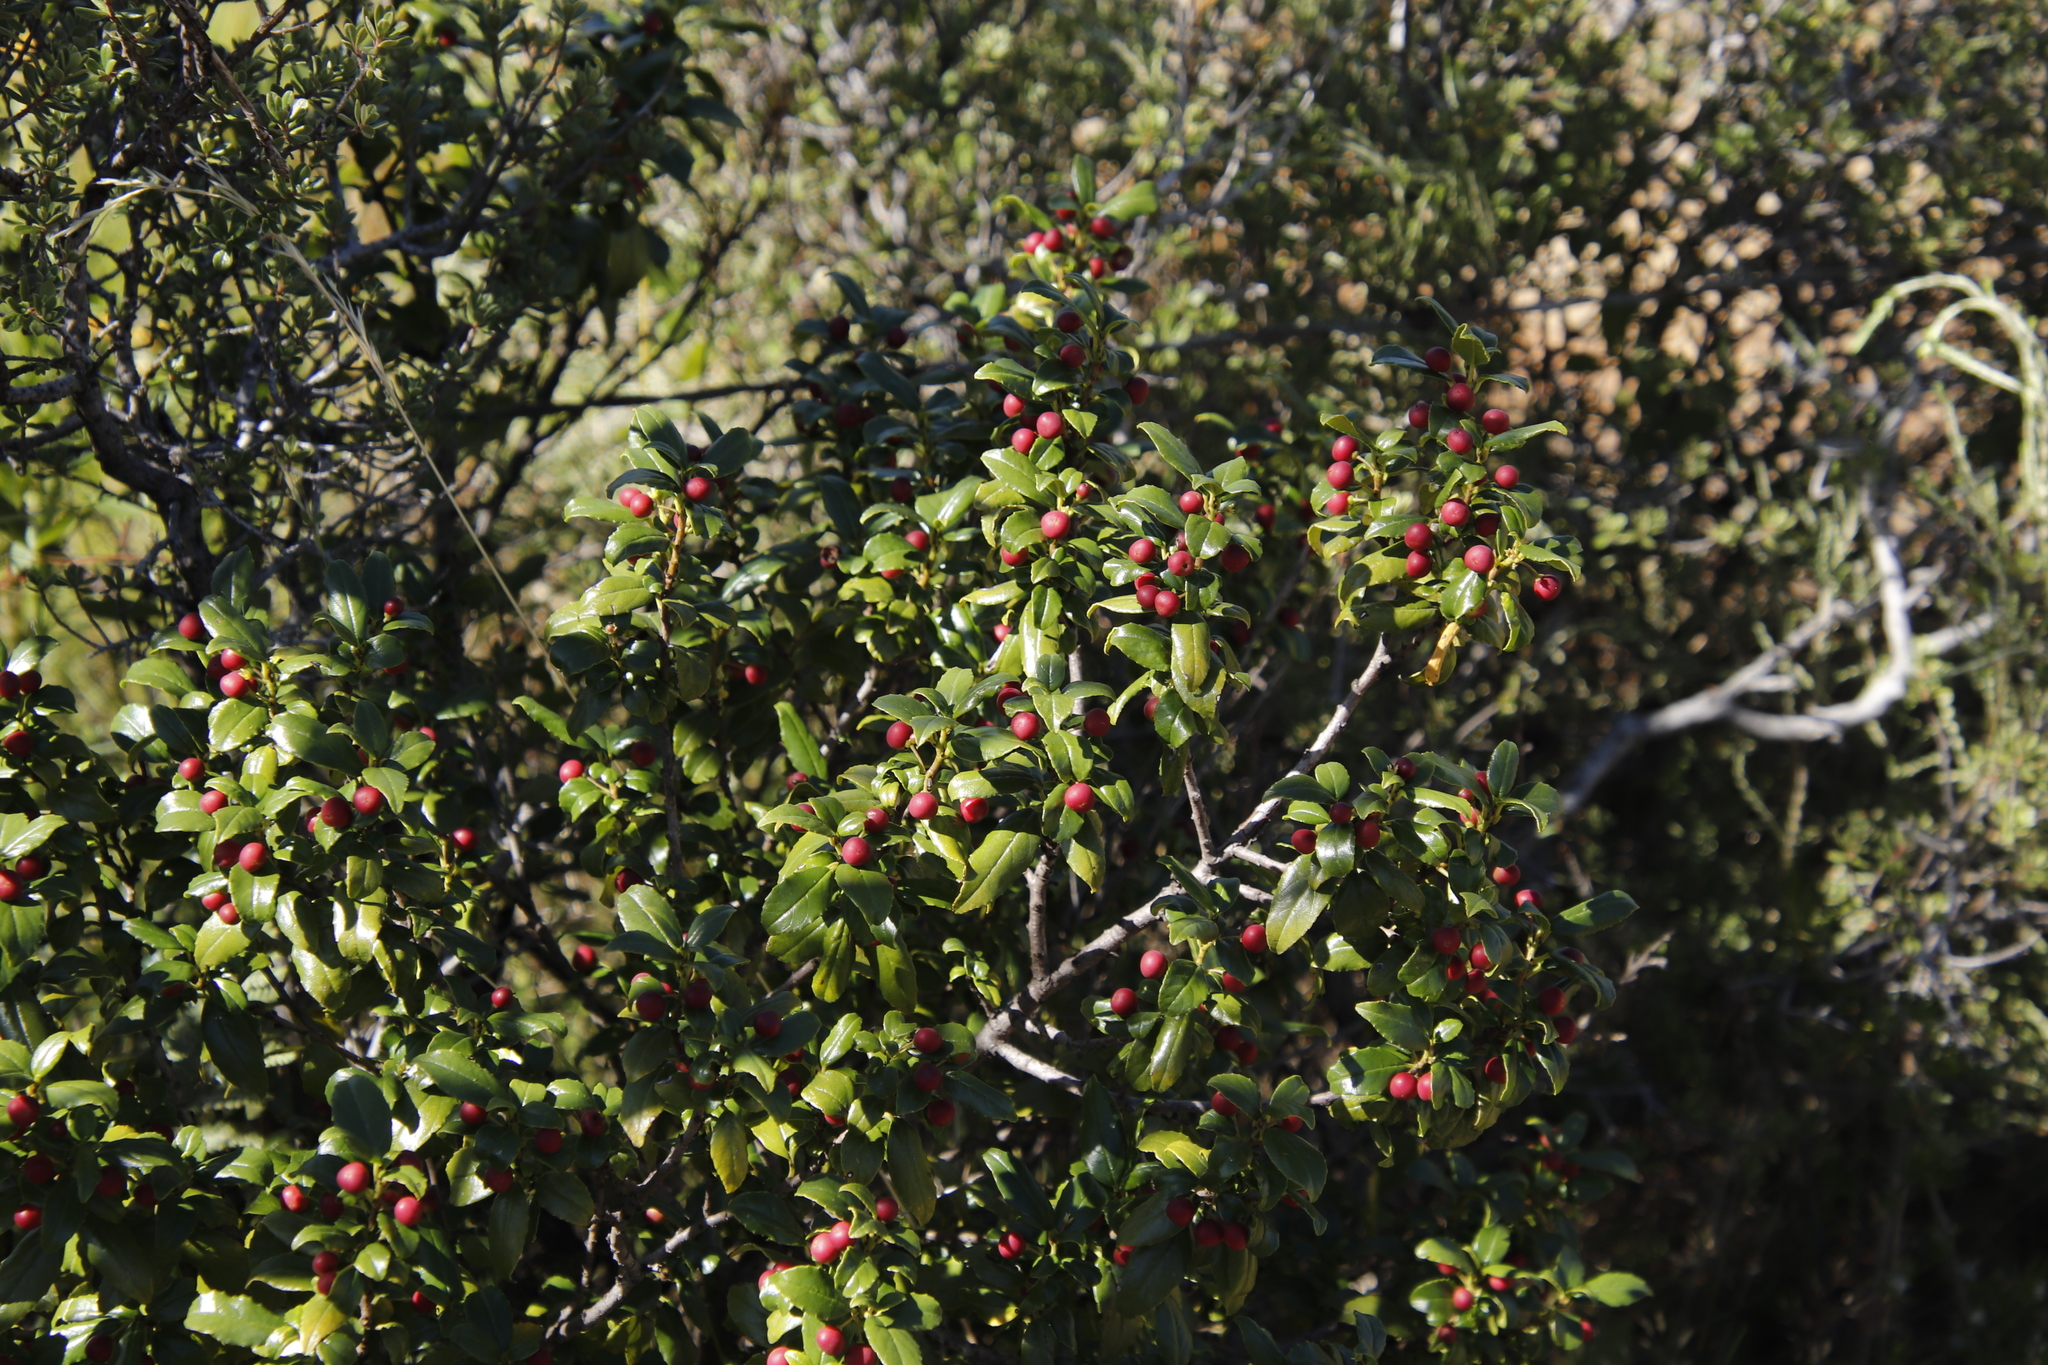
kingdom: Plantae
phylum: Tracheophyta
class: Magnoliopsida
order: Rosales
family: Rhamnaceae
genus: Rhamnus
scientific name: Rhamnus prinoides
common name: Dogwood
